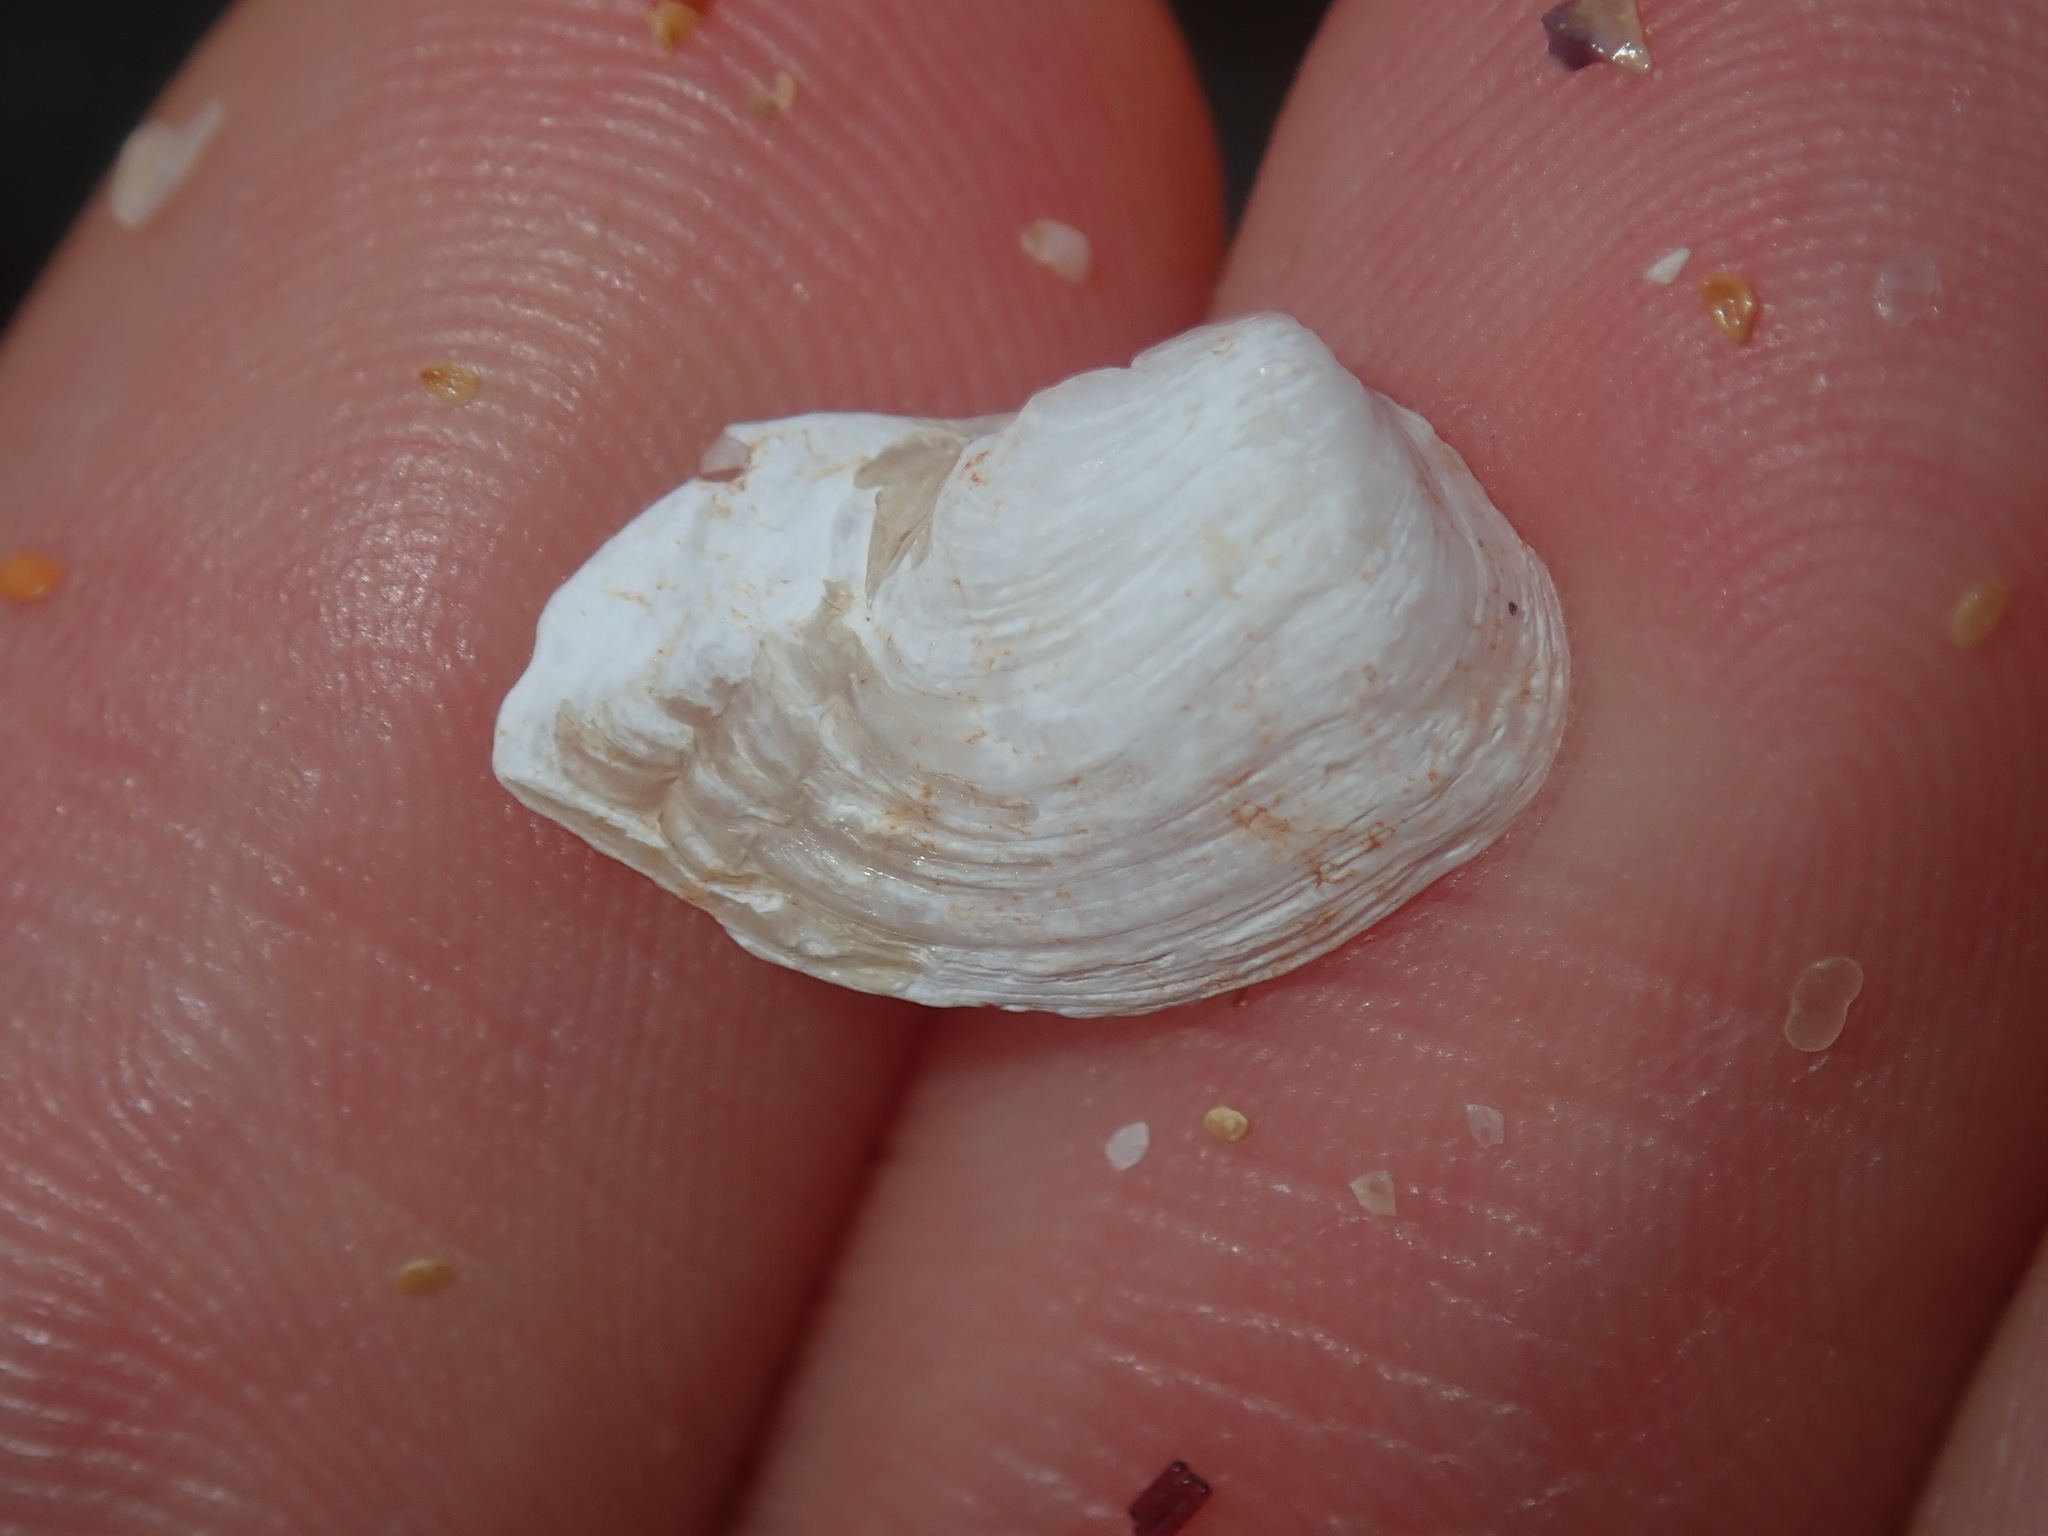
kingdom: Animalia
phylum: Mollusca
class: Bivalvia
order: Adapedonta
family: Hiatellidae
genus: Hiatella
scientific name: Hiatella australis
